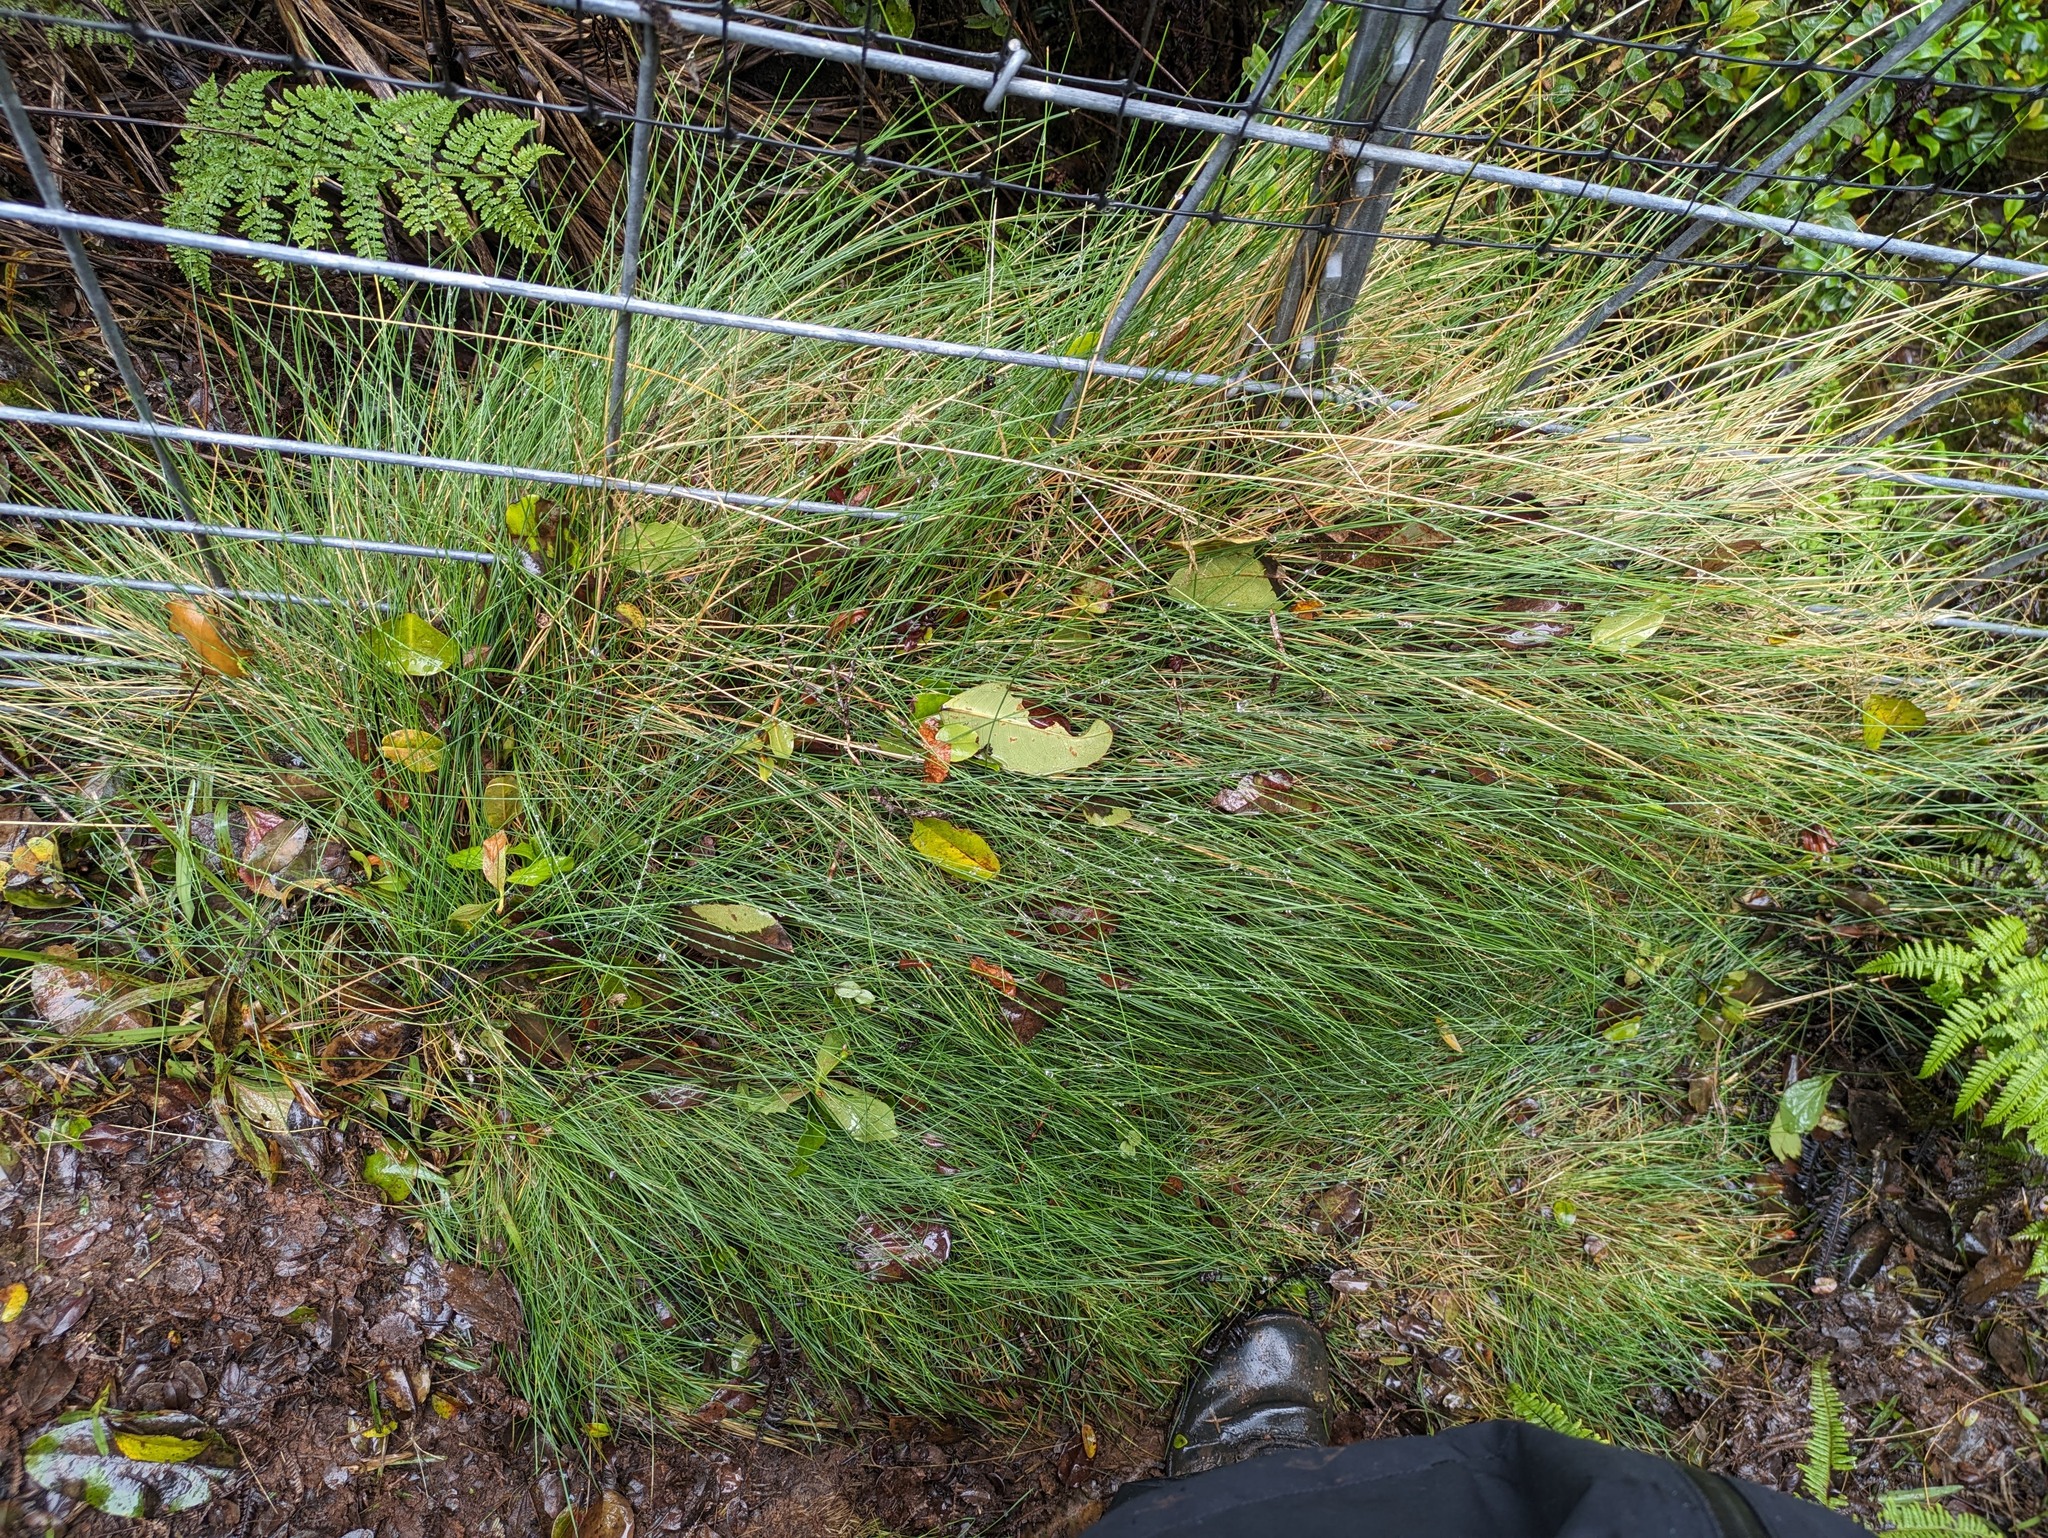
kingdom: Plantae
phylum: Tracheophyta
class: Liliopsida
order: Poales
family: Poaceae
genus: Deschampsia
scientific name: Deschampsia nubigena
